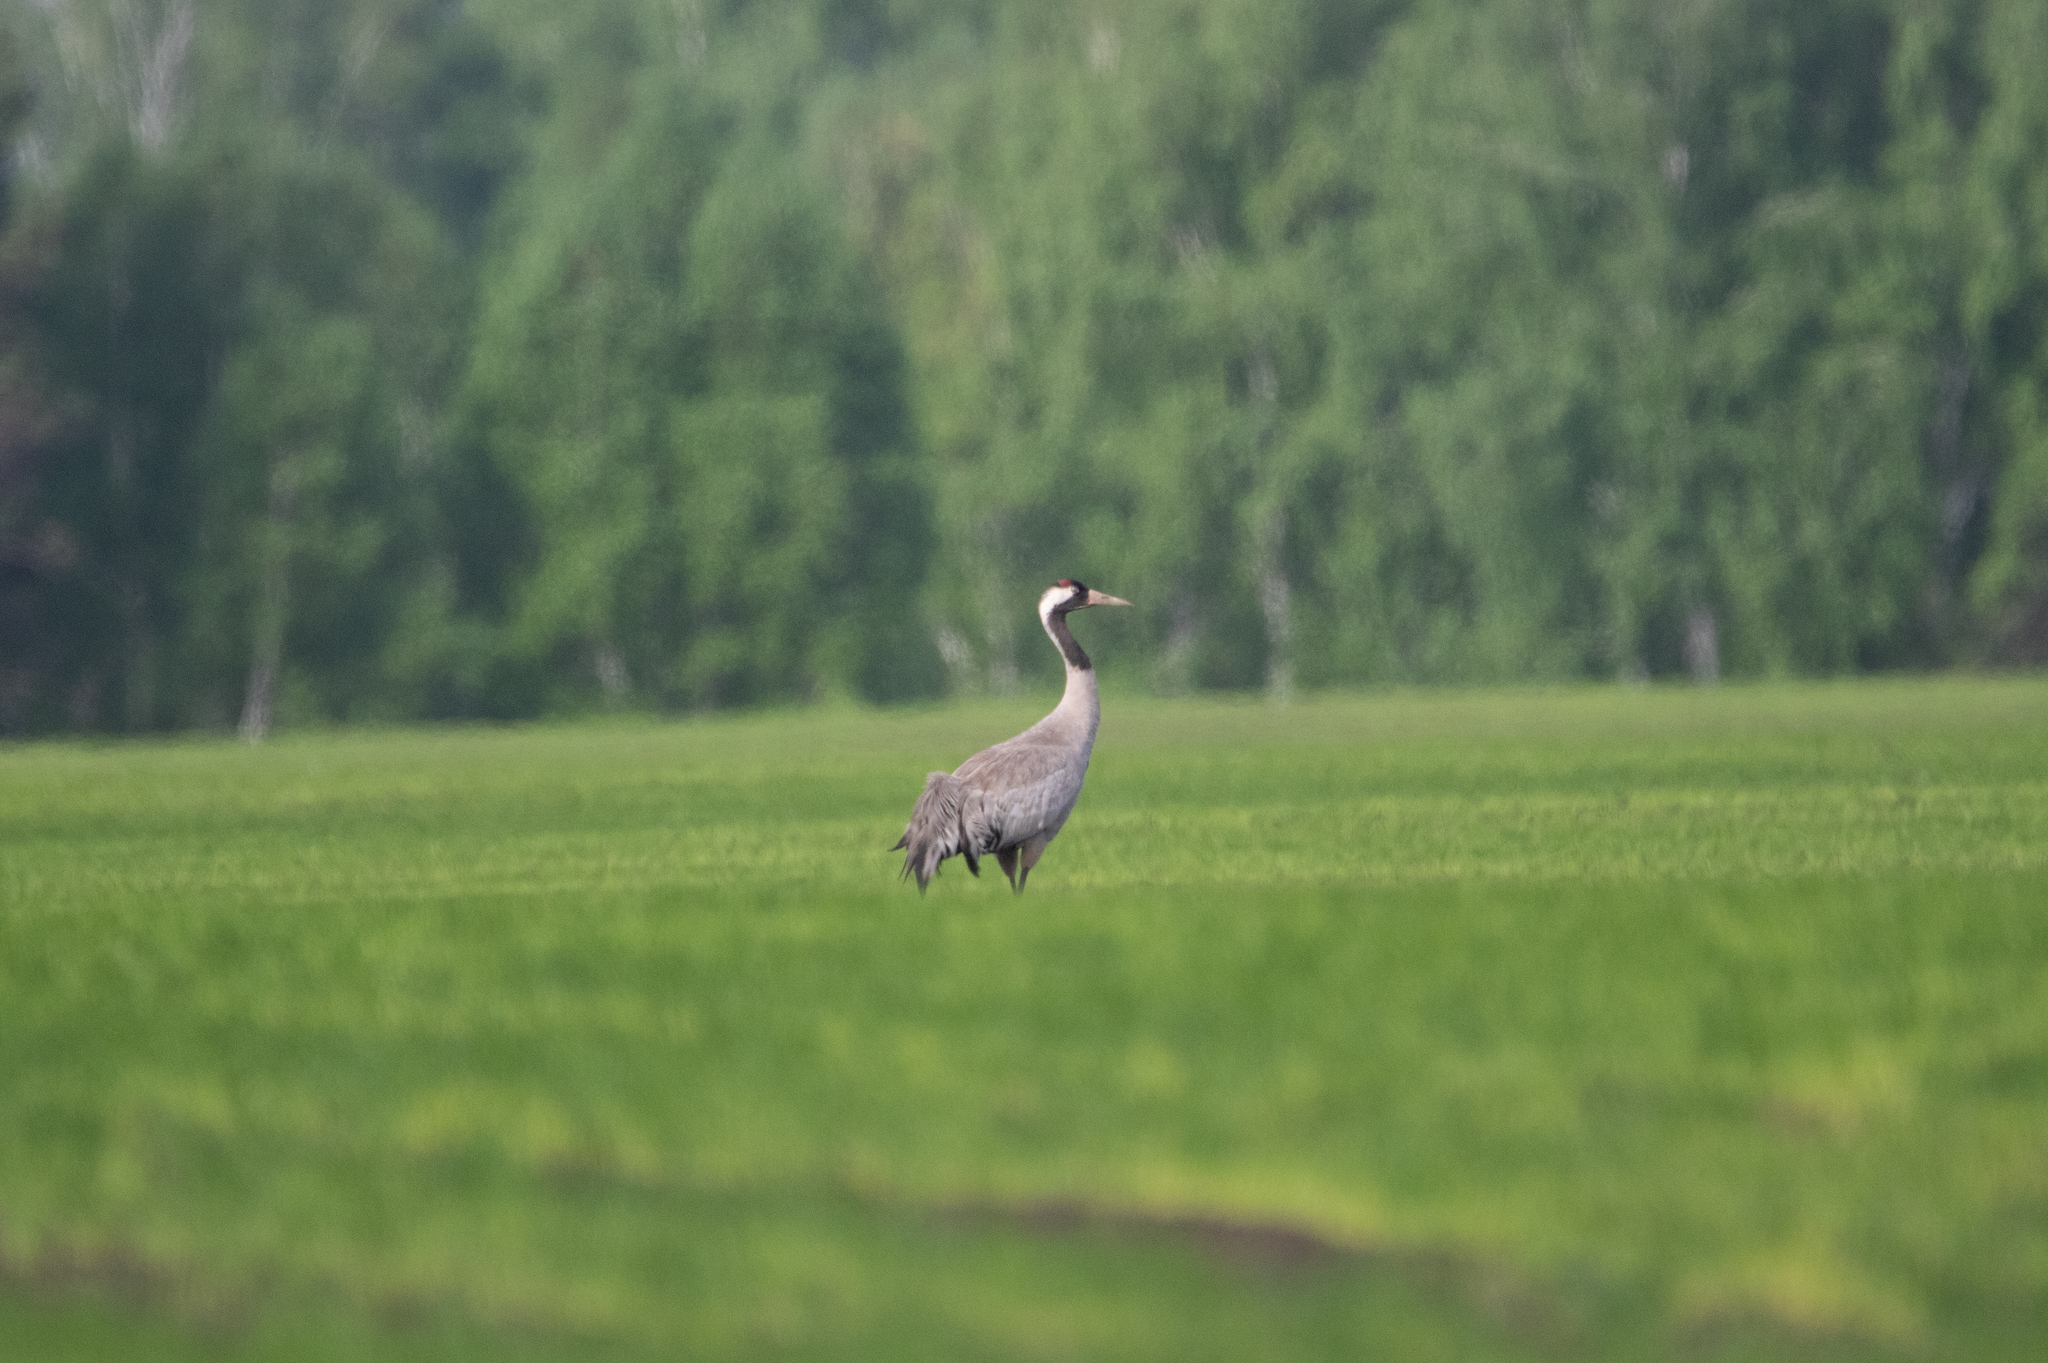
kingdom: Animalia
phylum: Chordata
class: Aves
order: Gruiformes
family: Gruidae
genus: Grus
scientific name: Grus grus
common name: Common crane
